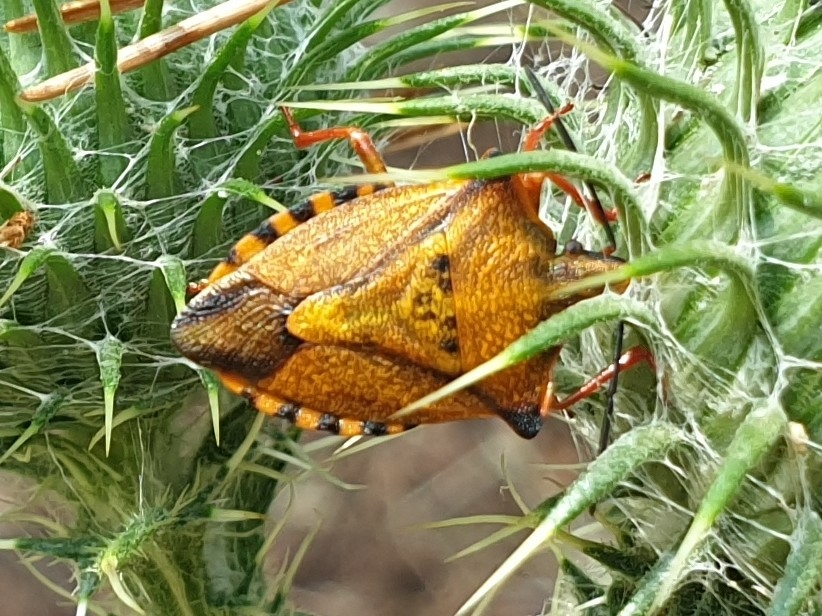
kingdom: Animalia
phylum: Arthropoda
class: Insecta
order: Hemiptera
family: Pentatomidae
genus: Carpocoris
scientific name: Carpocoris mediterraneus
